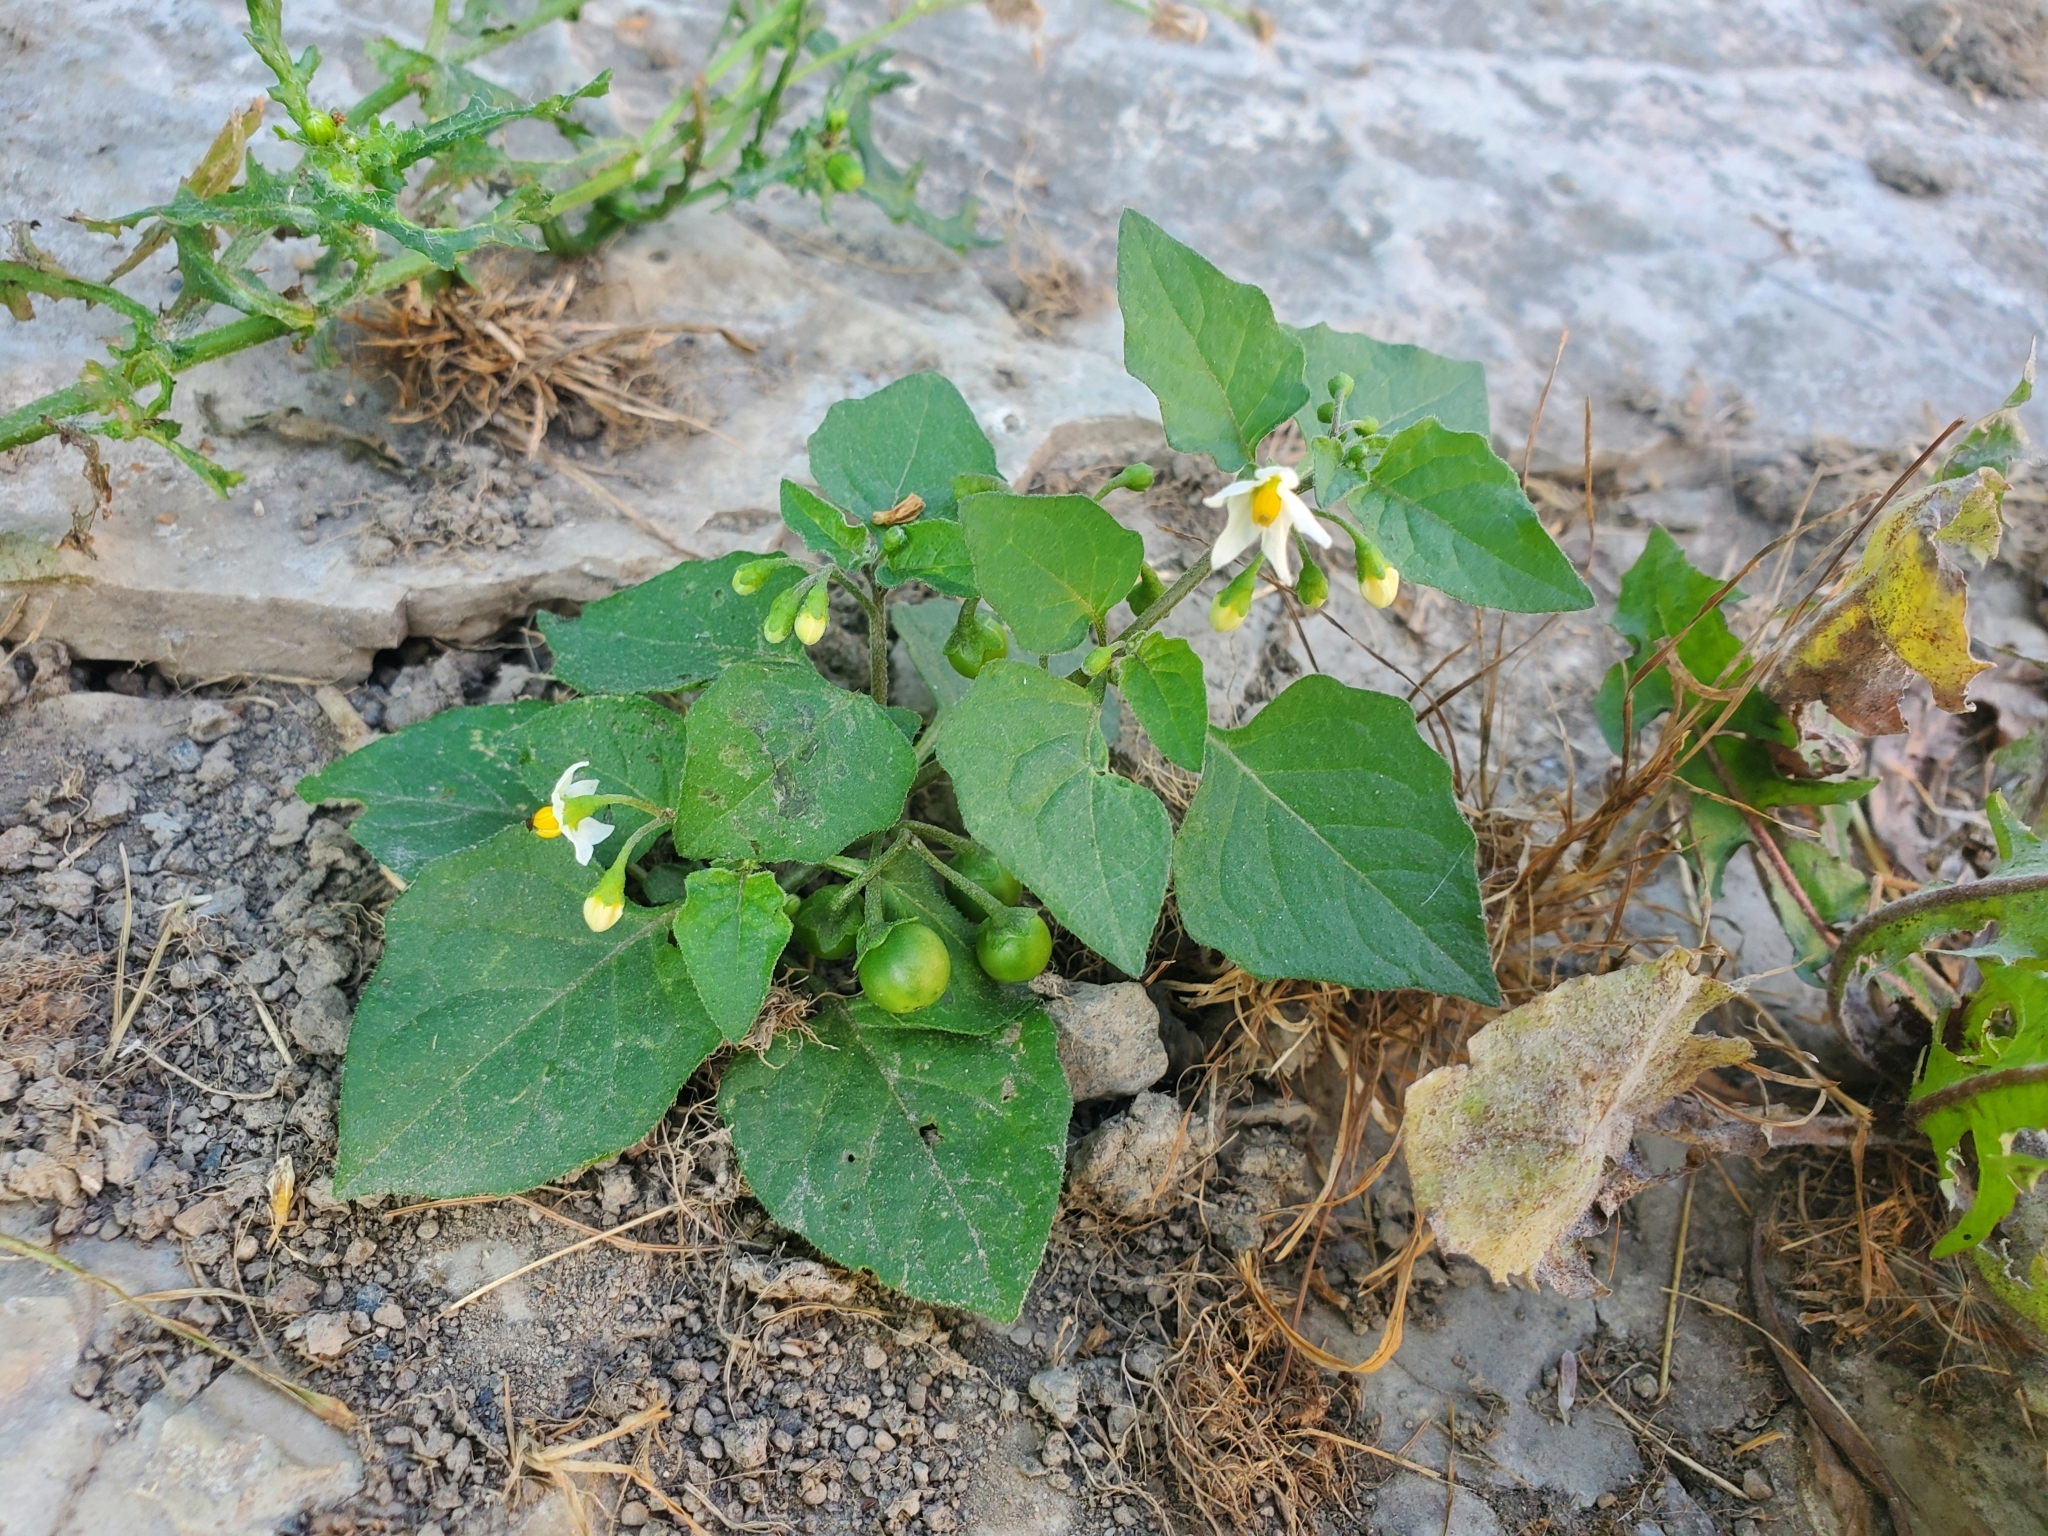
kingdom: Plantae
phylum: Tracheophyta
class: Magnoliopsida
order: Solanales
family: Solanaceae
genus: Solanum
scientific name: Solanum nigrum
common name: Black nightshade
